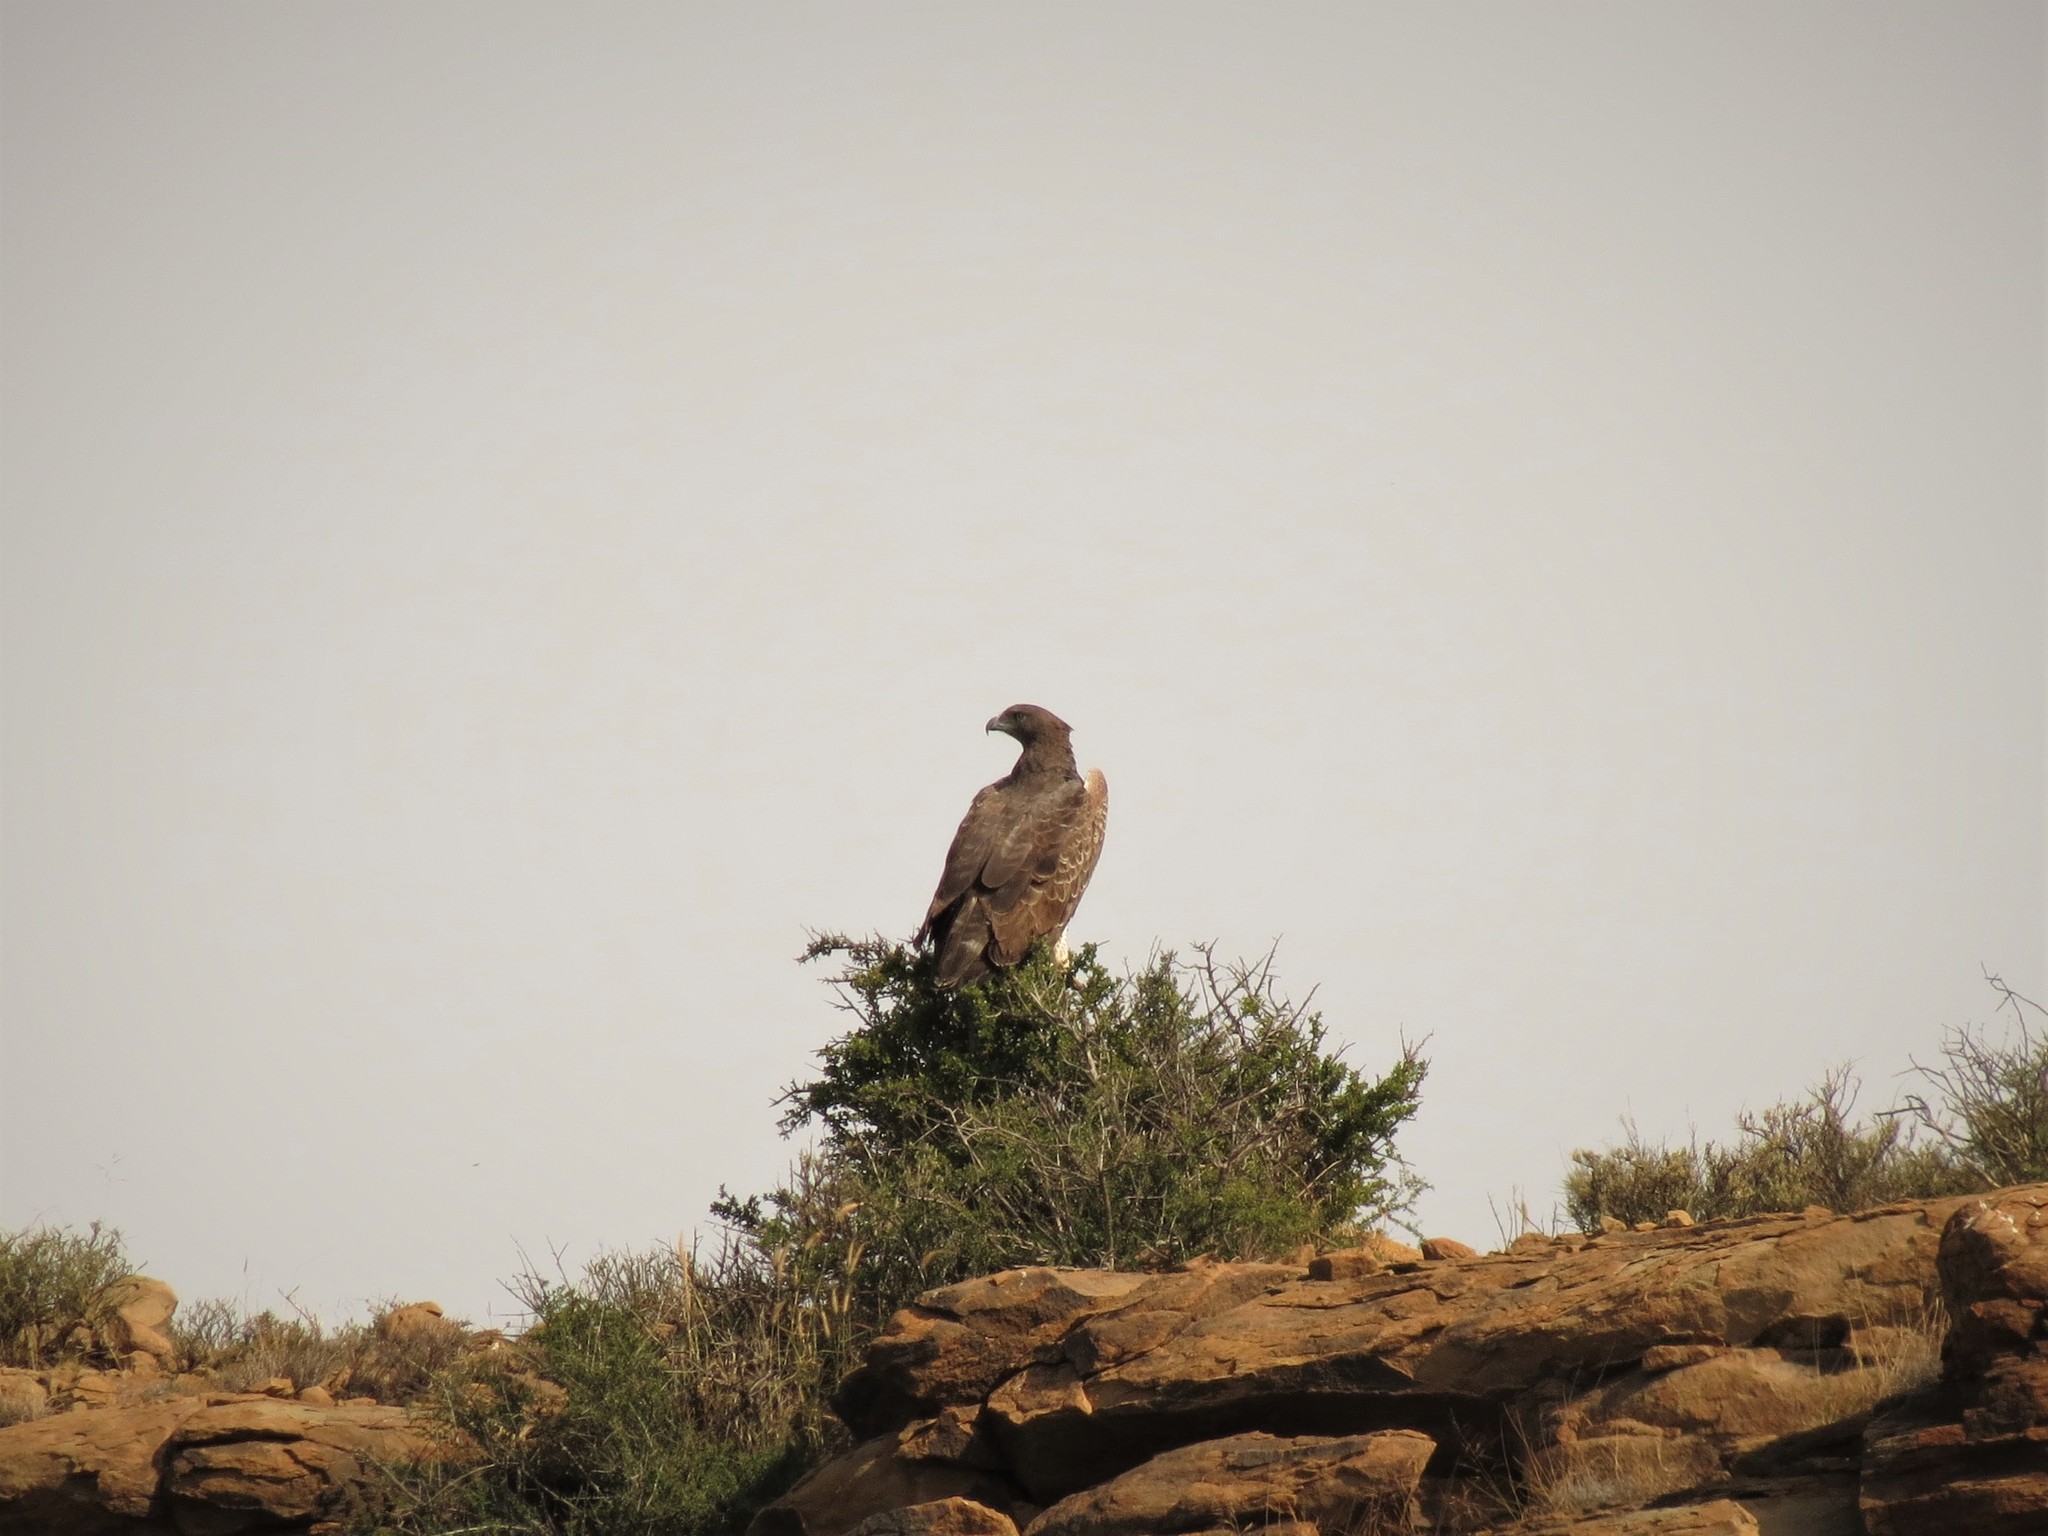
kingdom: Animalia
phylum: Chordata
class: Aves
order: Accipitriformes
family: Accipitridae
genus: Polemaetus
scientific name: Polemaetus bellicosus
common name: Martial eagle
